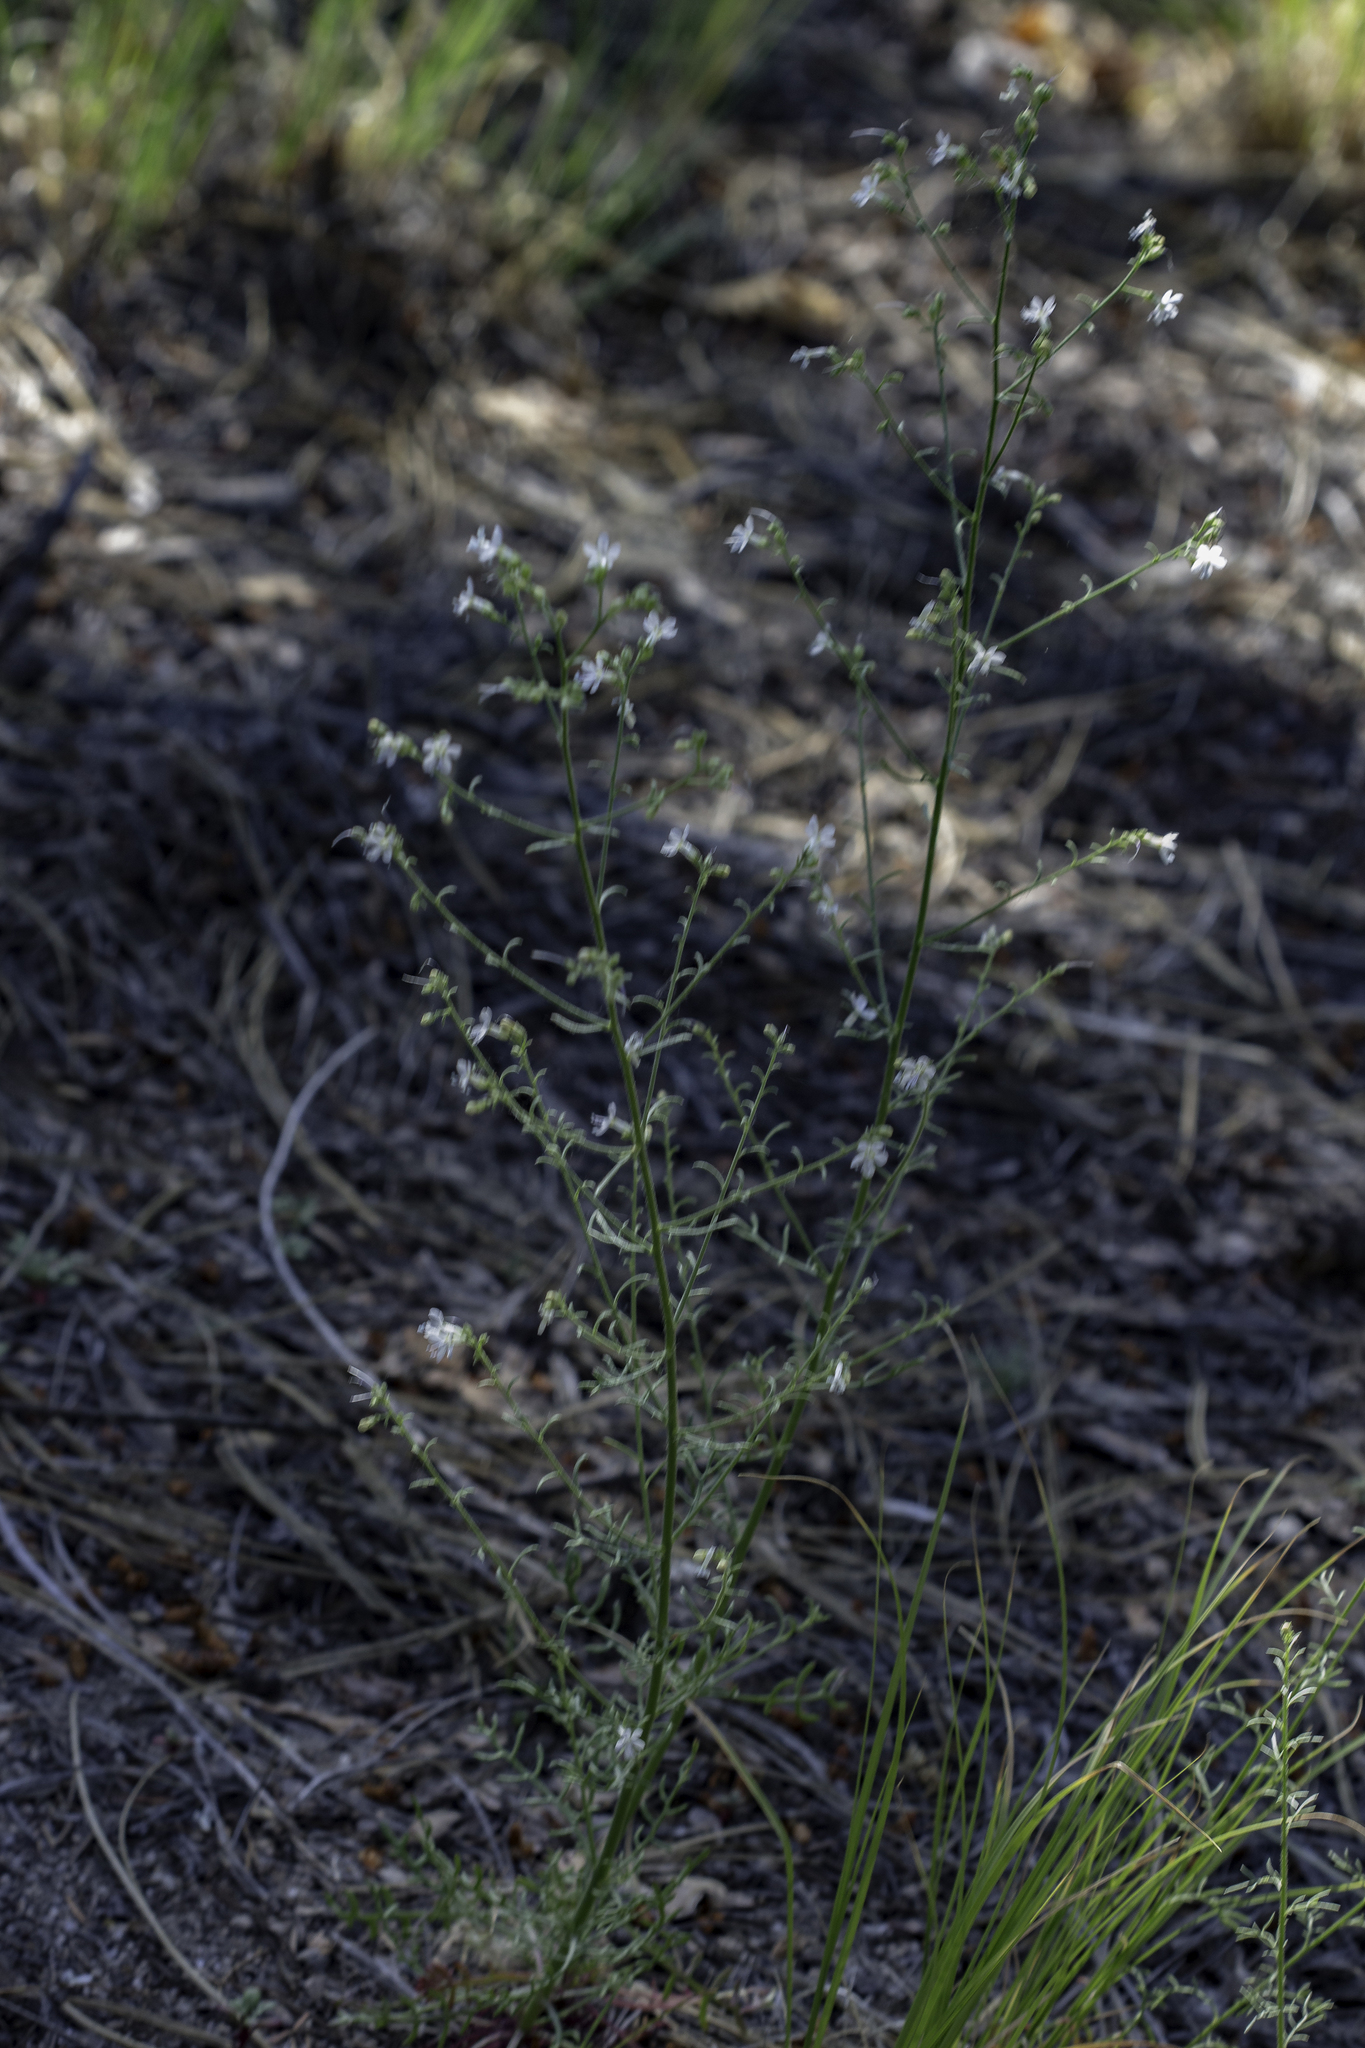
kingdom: Plantae
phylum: Tracheophyta
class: Magnoliopsida
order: Ericales
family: Polemoniaceae
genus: Aliciella
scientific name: Aliciella pinnatifida
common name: Sticky gilia
